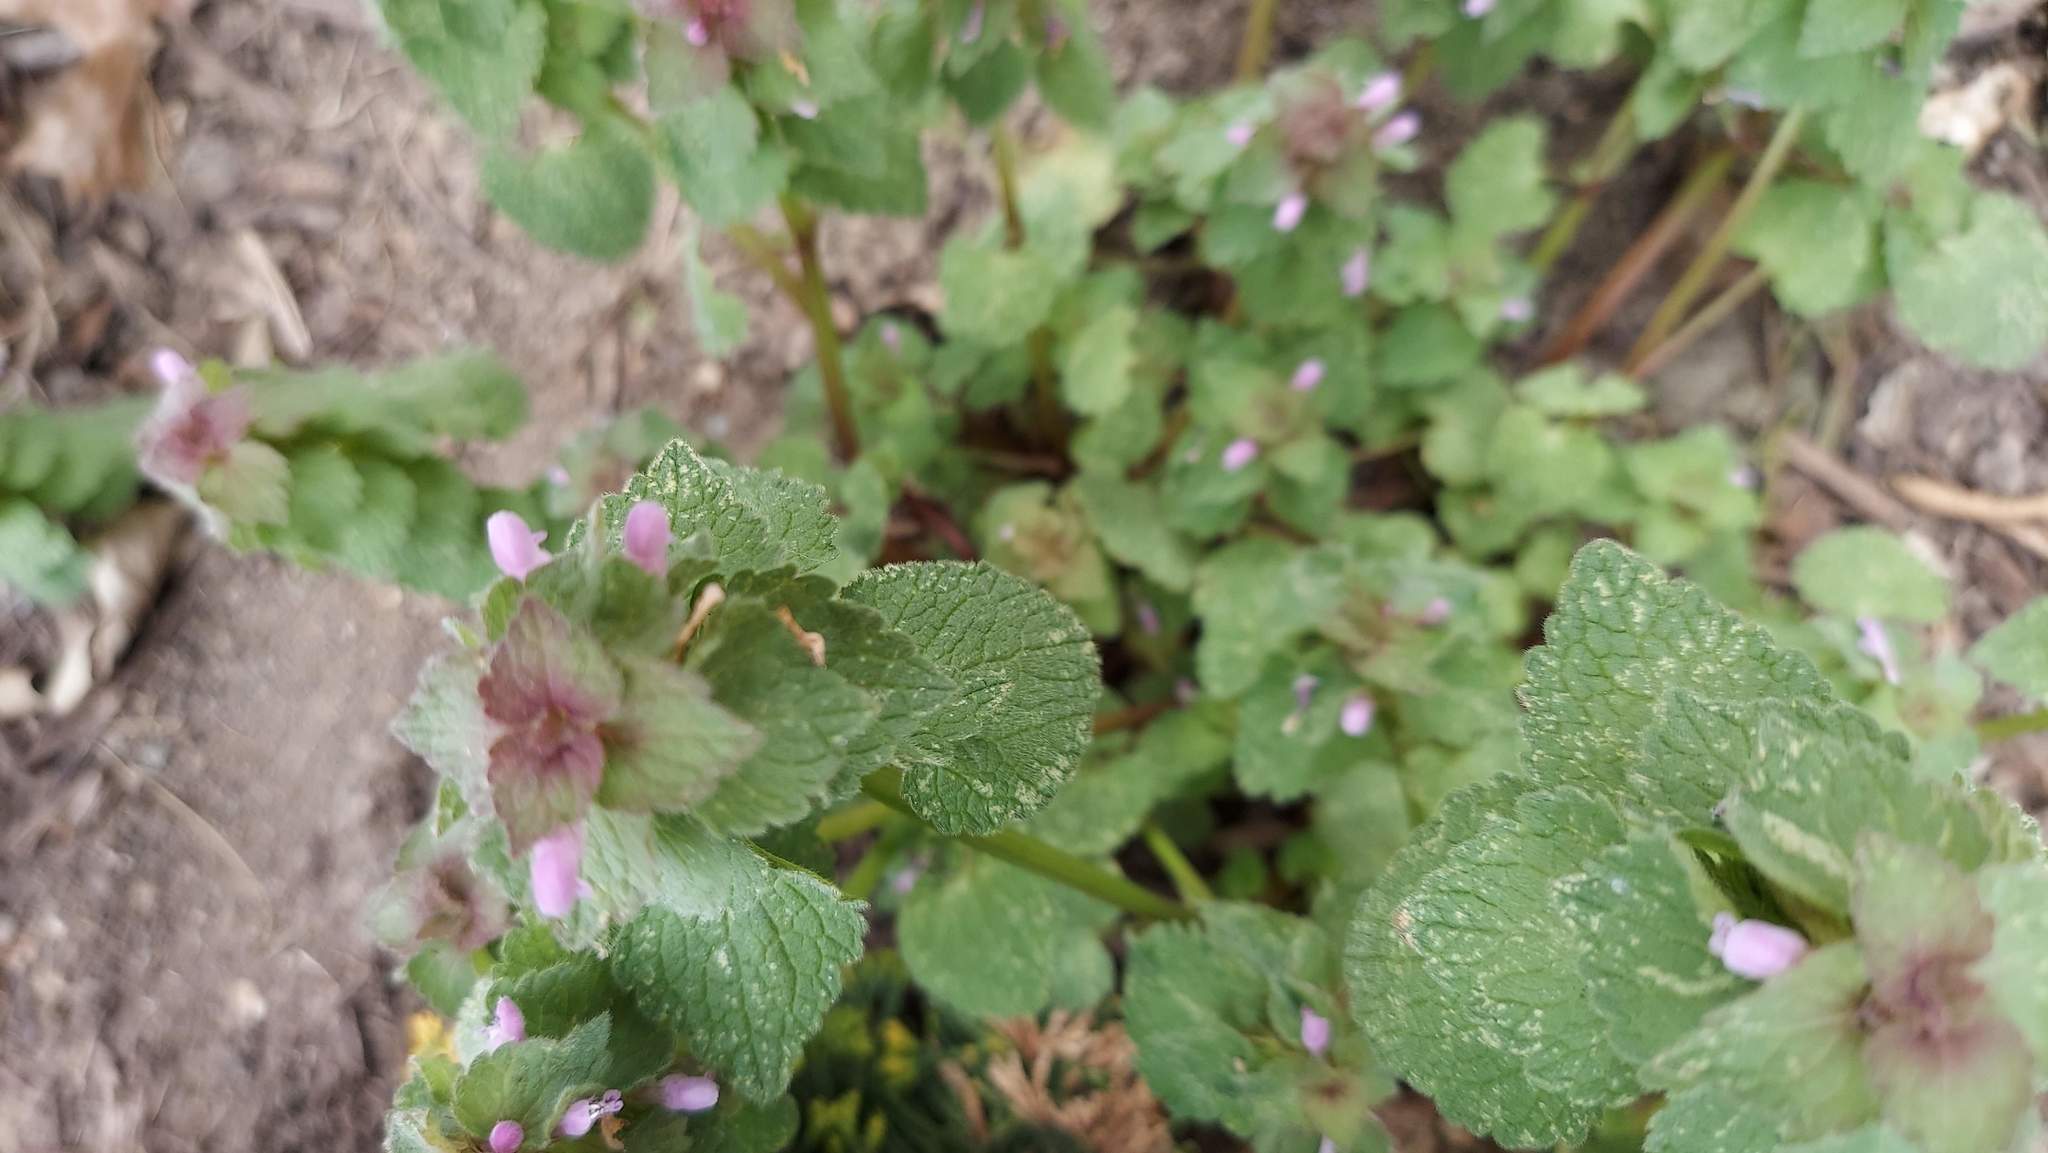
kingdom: Plantae
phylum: Tracheophyta
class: Magnoliopsida
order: Lamiales
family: Lamiaceae
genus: Lamium
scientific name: Lamium purpureum
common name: Red dead-nettle
